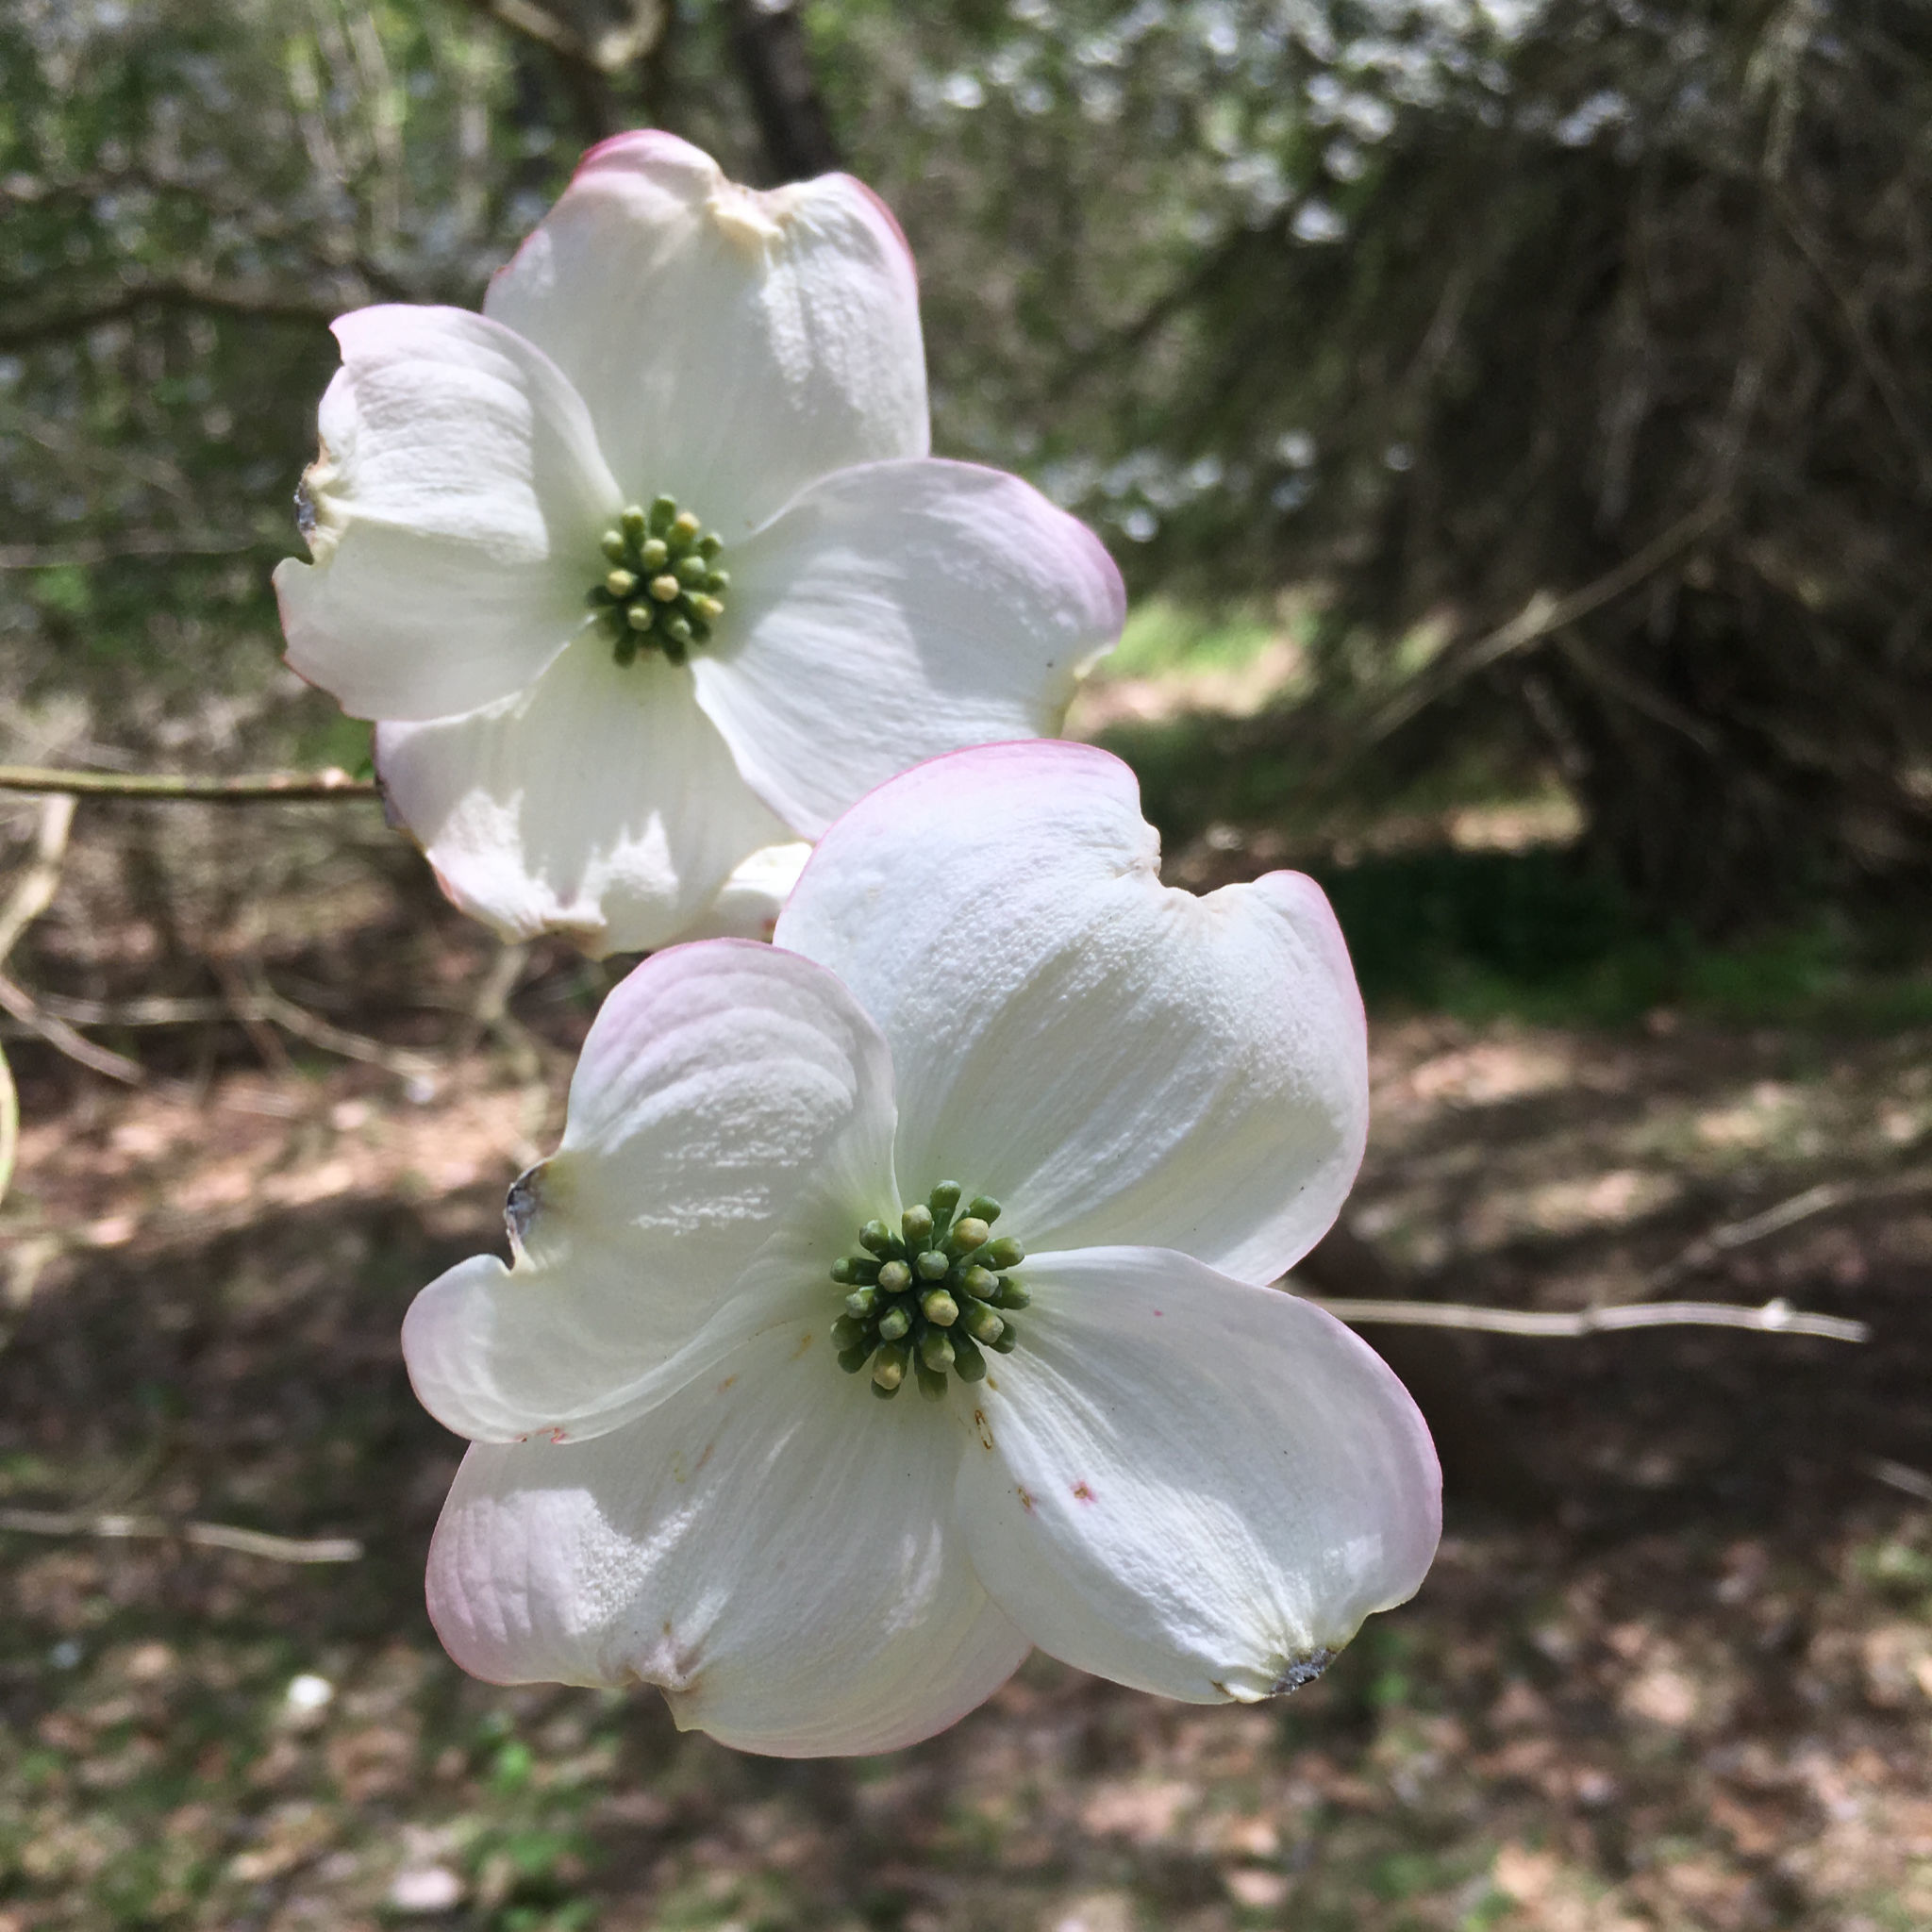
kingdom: Plantae
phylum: Tracheophyta
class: Magnoliopsida
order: Cornales
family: Cornaceae
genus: Cornus
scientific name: Cornus florida
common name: Flowering dogwood
